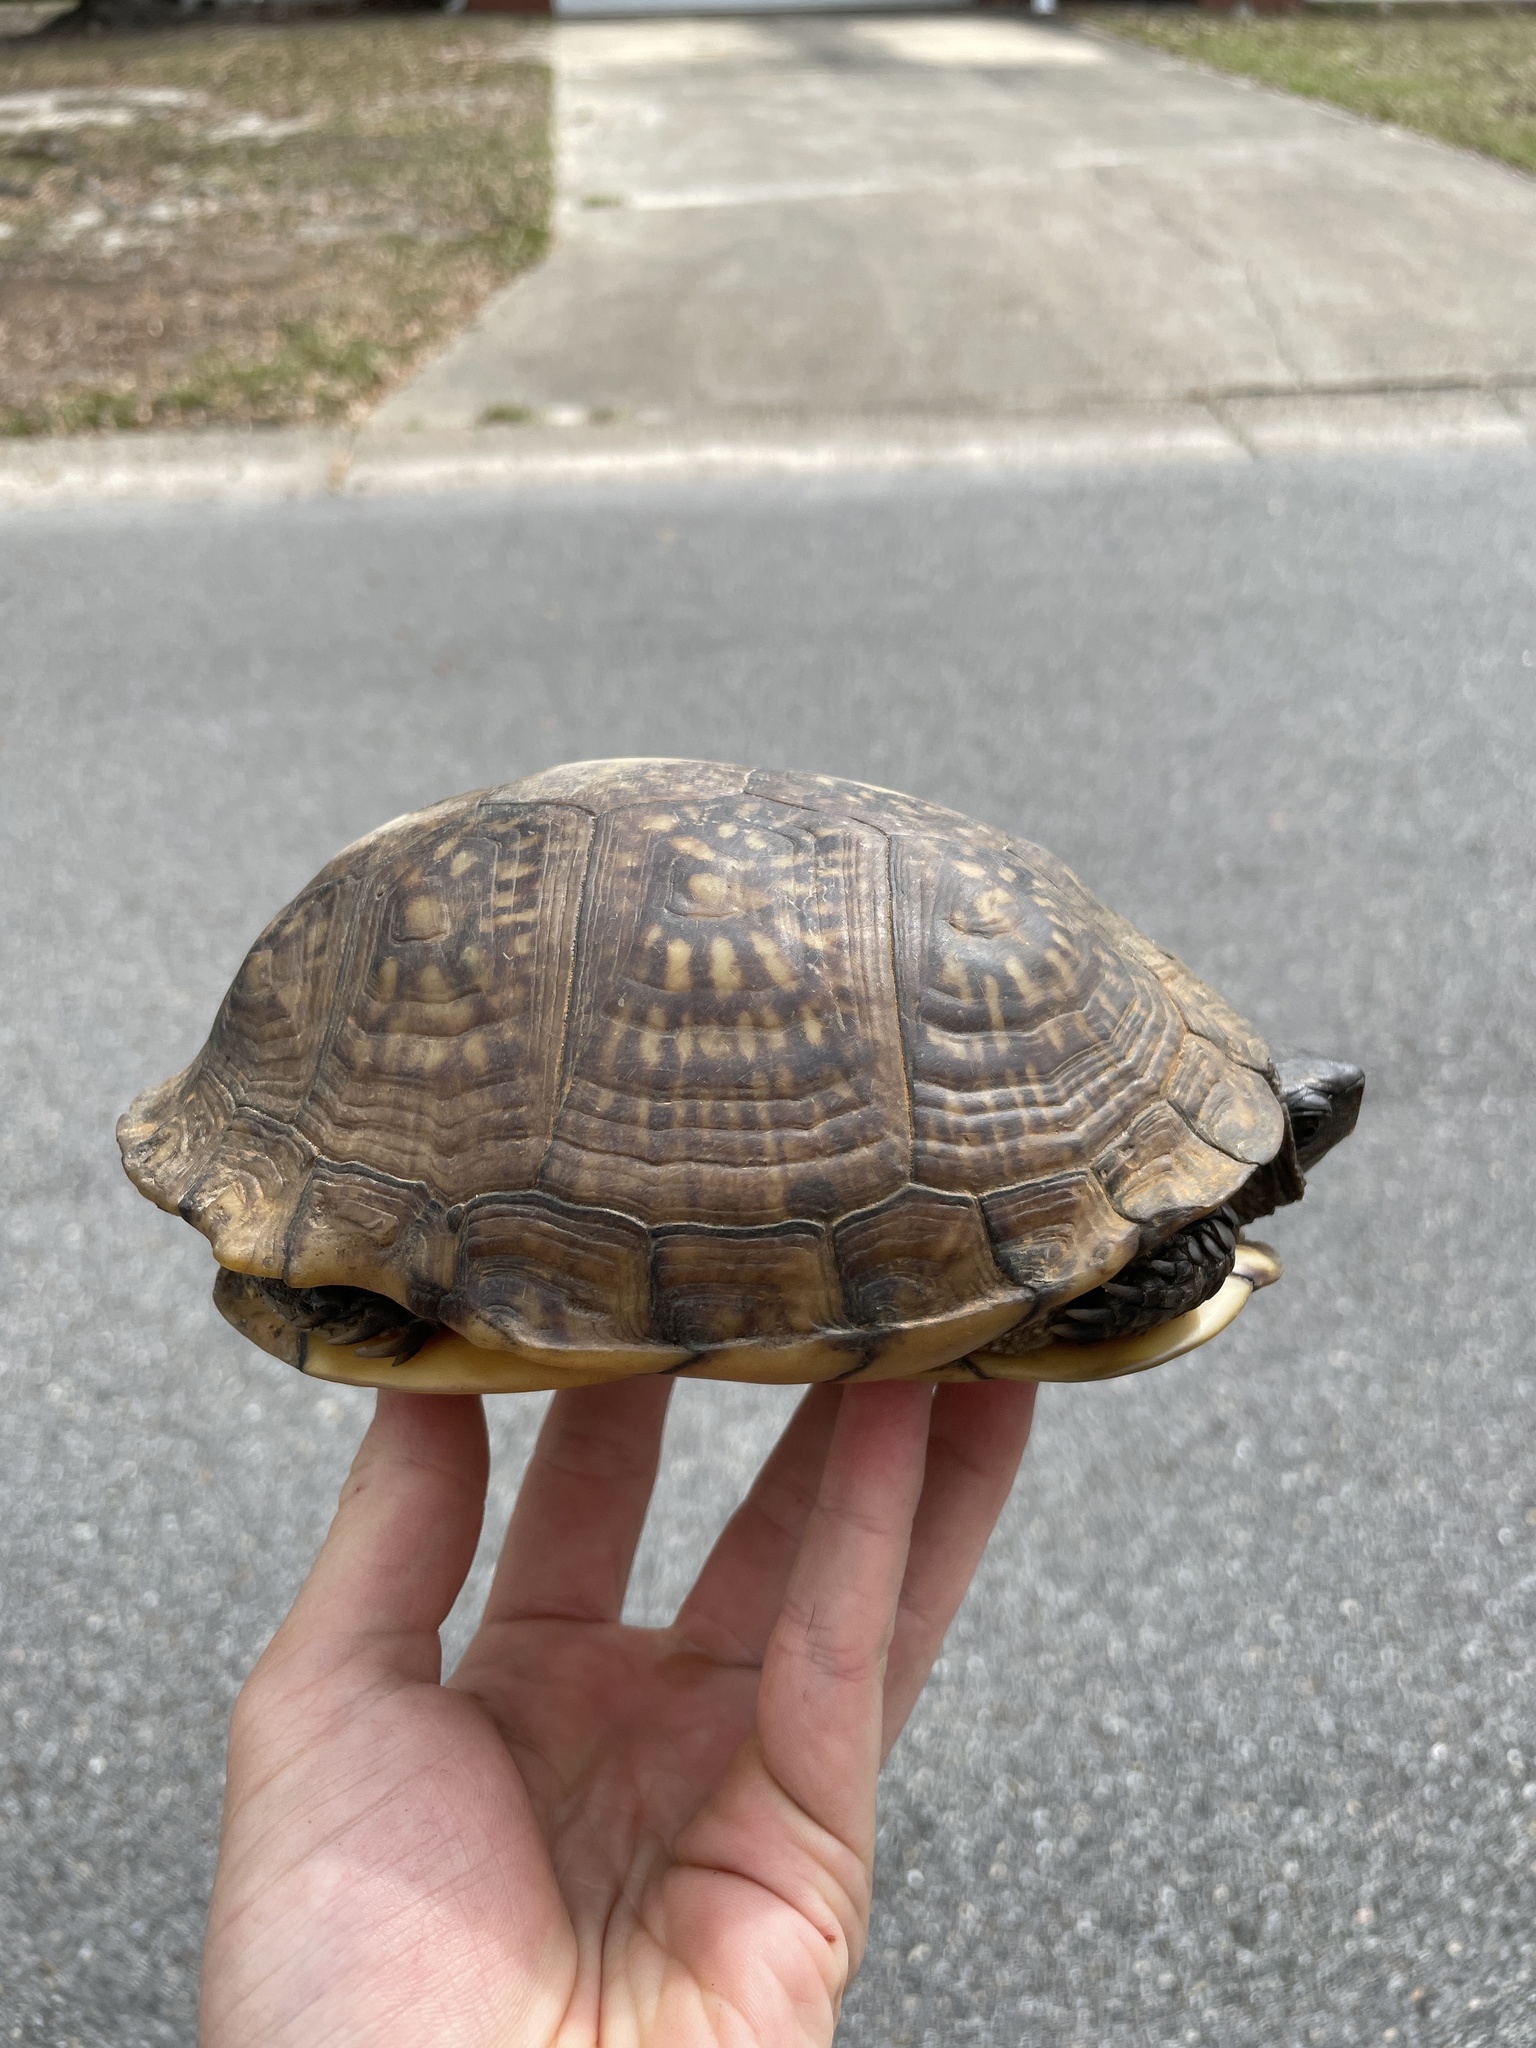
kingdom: Animalia
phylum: Chordata
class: Testudines
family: Emydidae
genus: Terrapene
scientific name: Terrapene carolina
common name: Common box turtle
